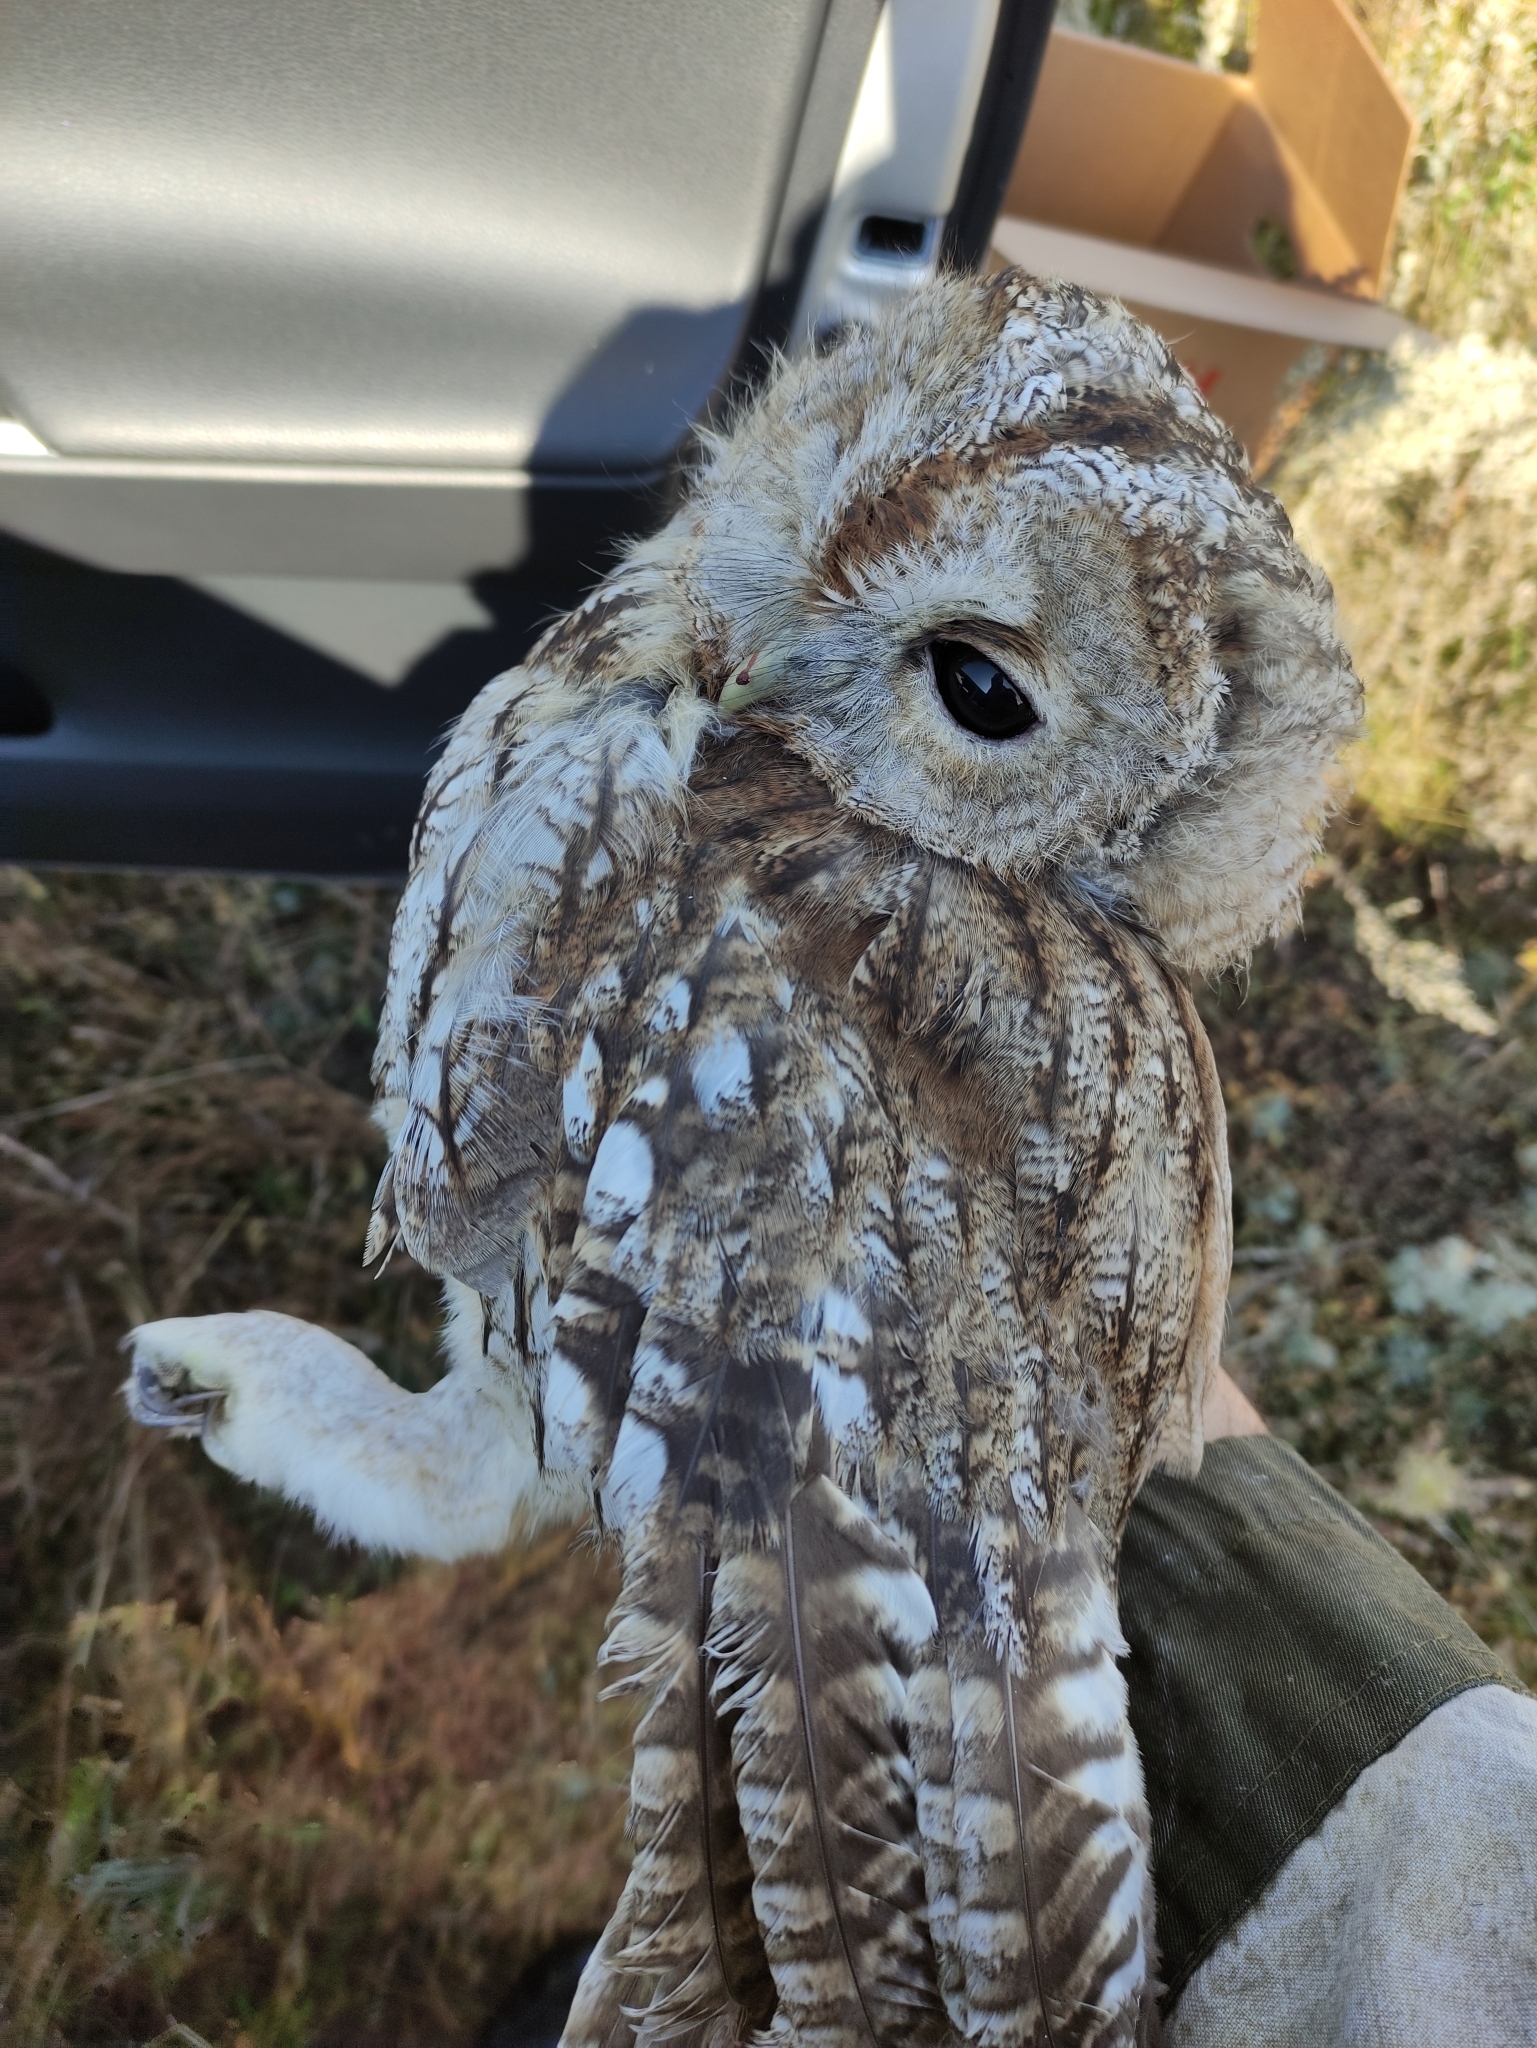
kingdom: Animalia
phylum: Chordata
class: Aves
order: Strigiformes
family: Strigidae
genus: Strix
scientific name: Strix aluco
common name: Tawny owl
